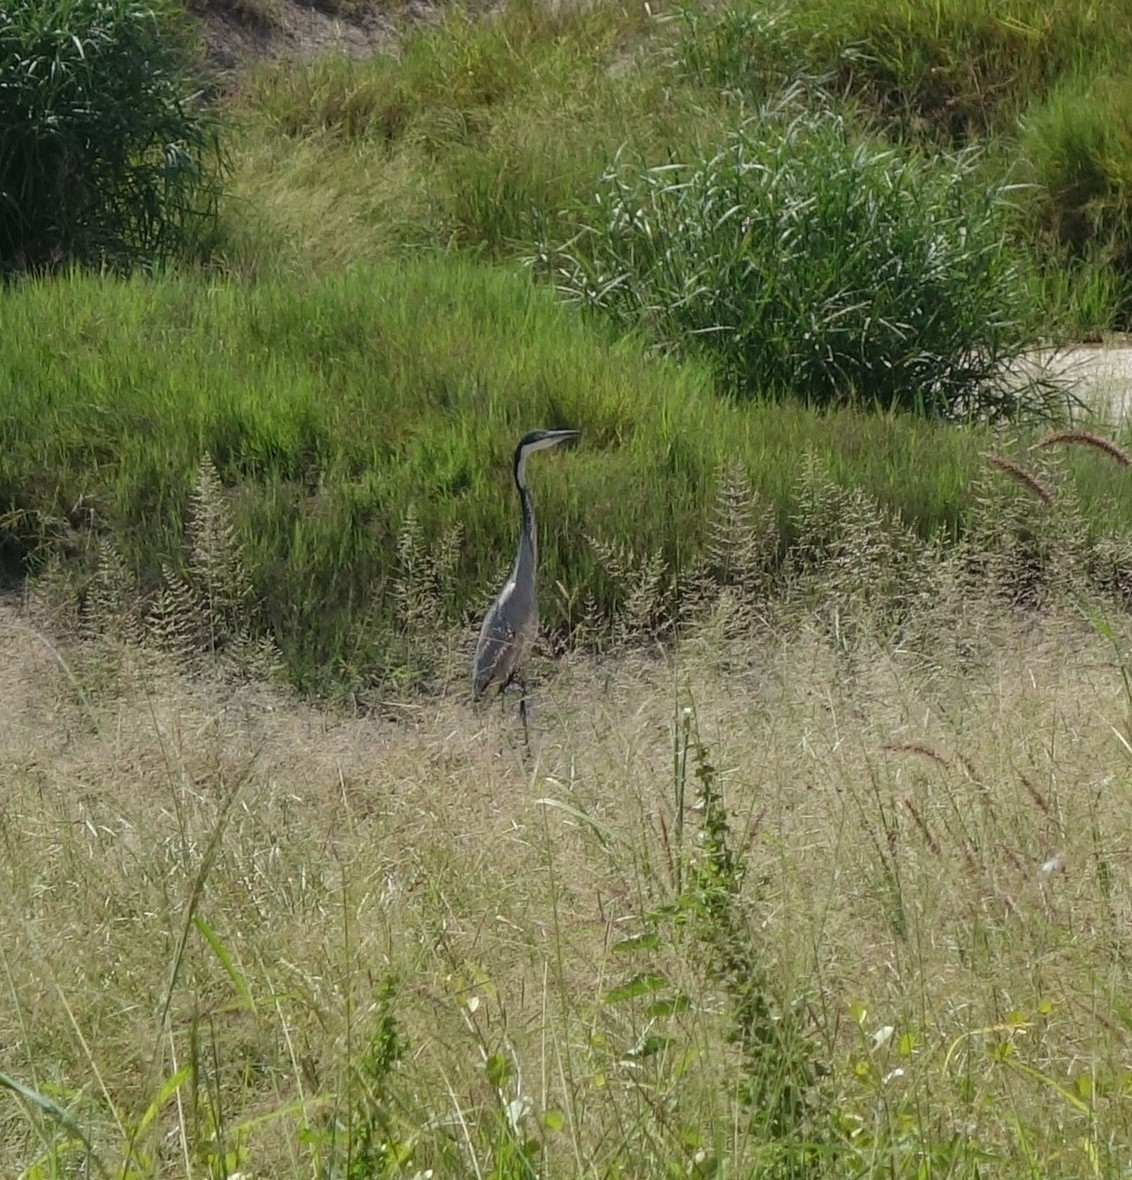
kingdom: Animalia
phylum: Chordata
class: Aves
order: Pelecaniformes
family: Ardeidae
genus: Ardea
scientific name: Ardea melanocephala
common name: Black-headed heron
